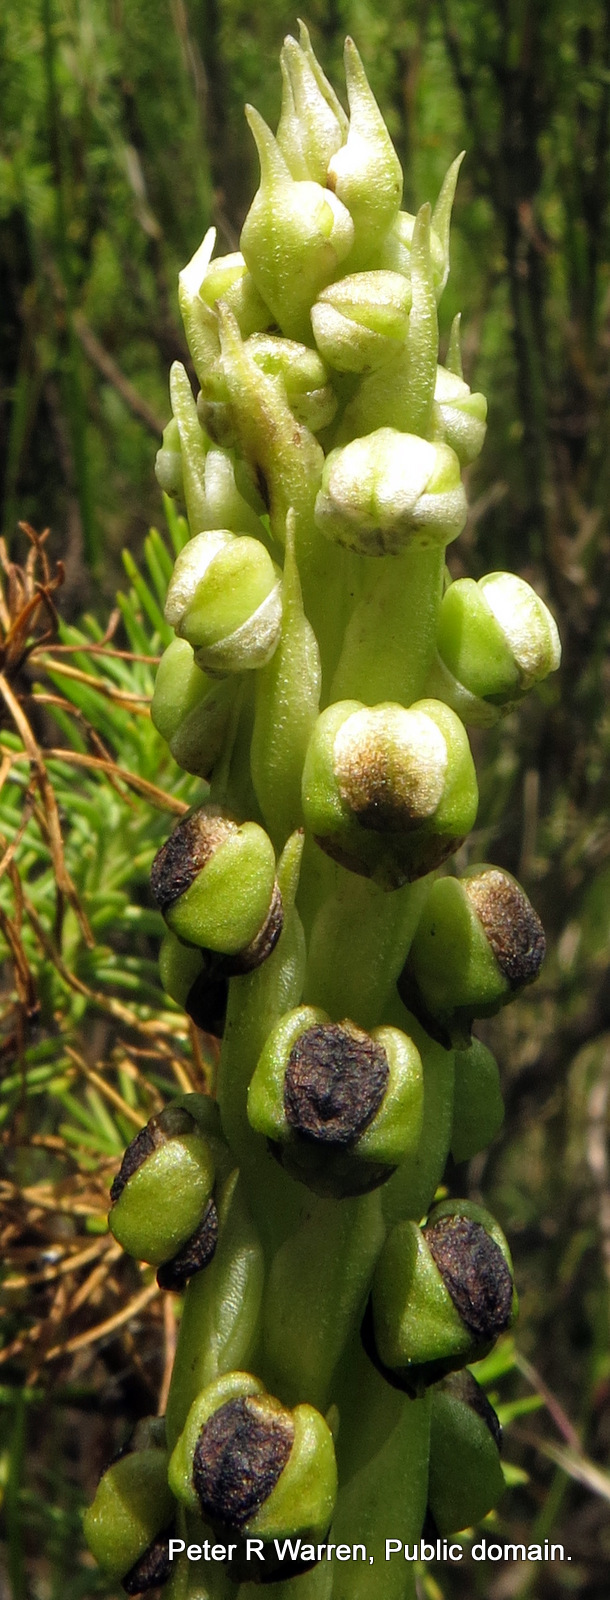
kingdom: Plantae
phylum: Tracheophyta
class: Liliopsida
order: Asparagales
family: Orchidaceae
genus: Corycium
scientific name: Corycium dracomontanum
